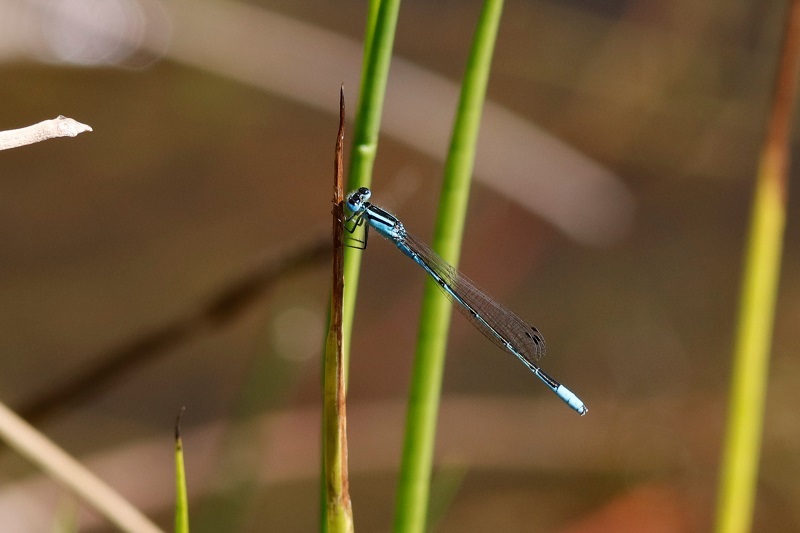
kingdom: Animalia
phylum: Arthropoda
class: Insecta
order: Odonata
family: Coenagrionidae
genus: Africallagma
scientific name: Africallagma glaucum
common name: Swamp bluet
